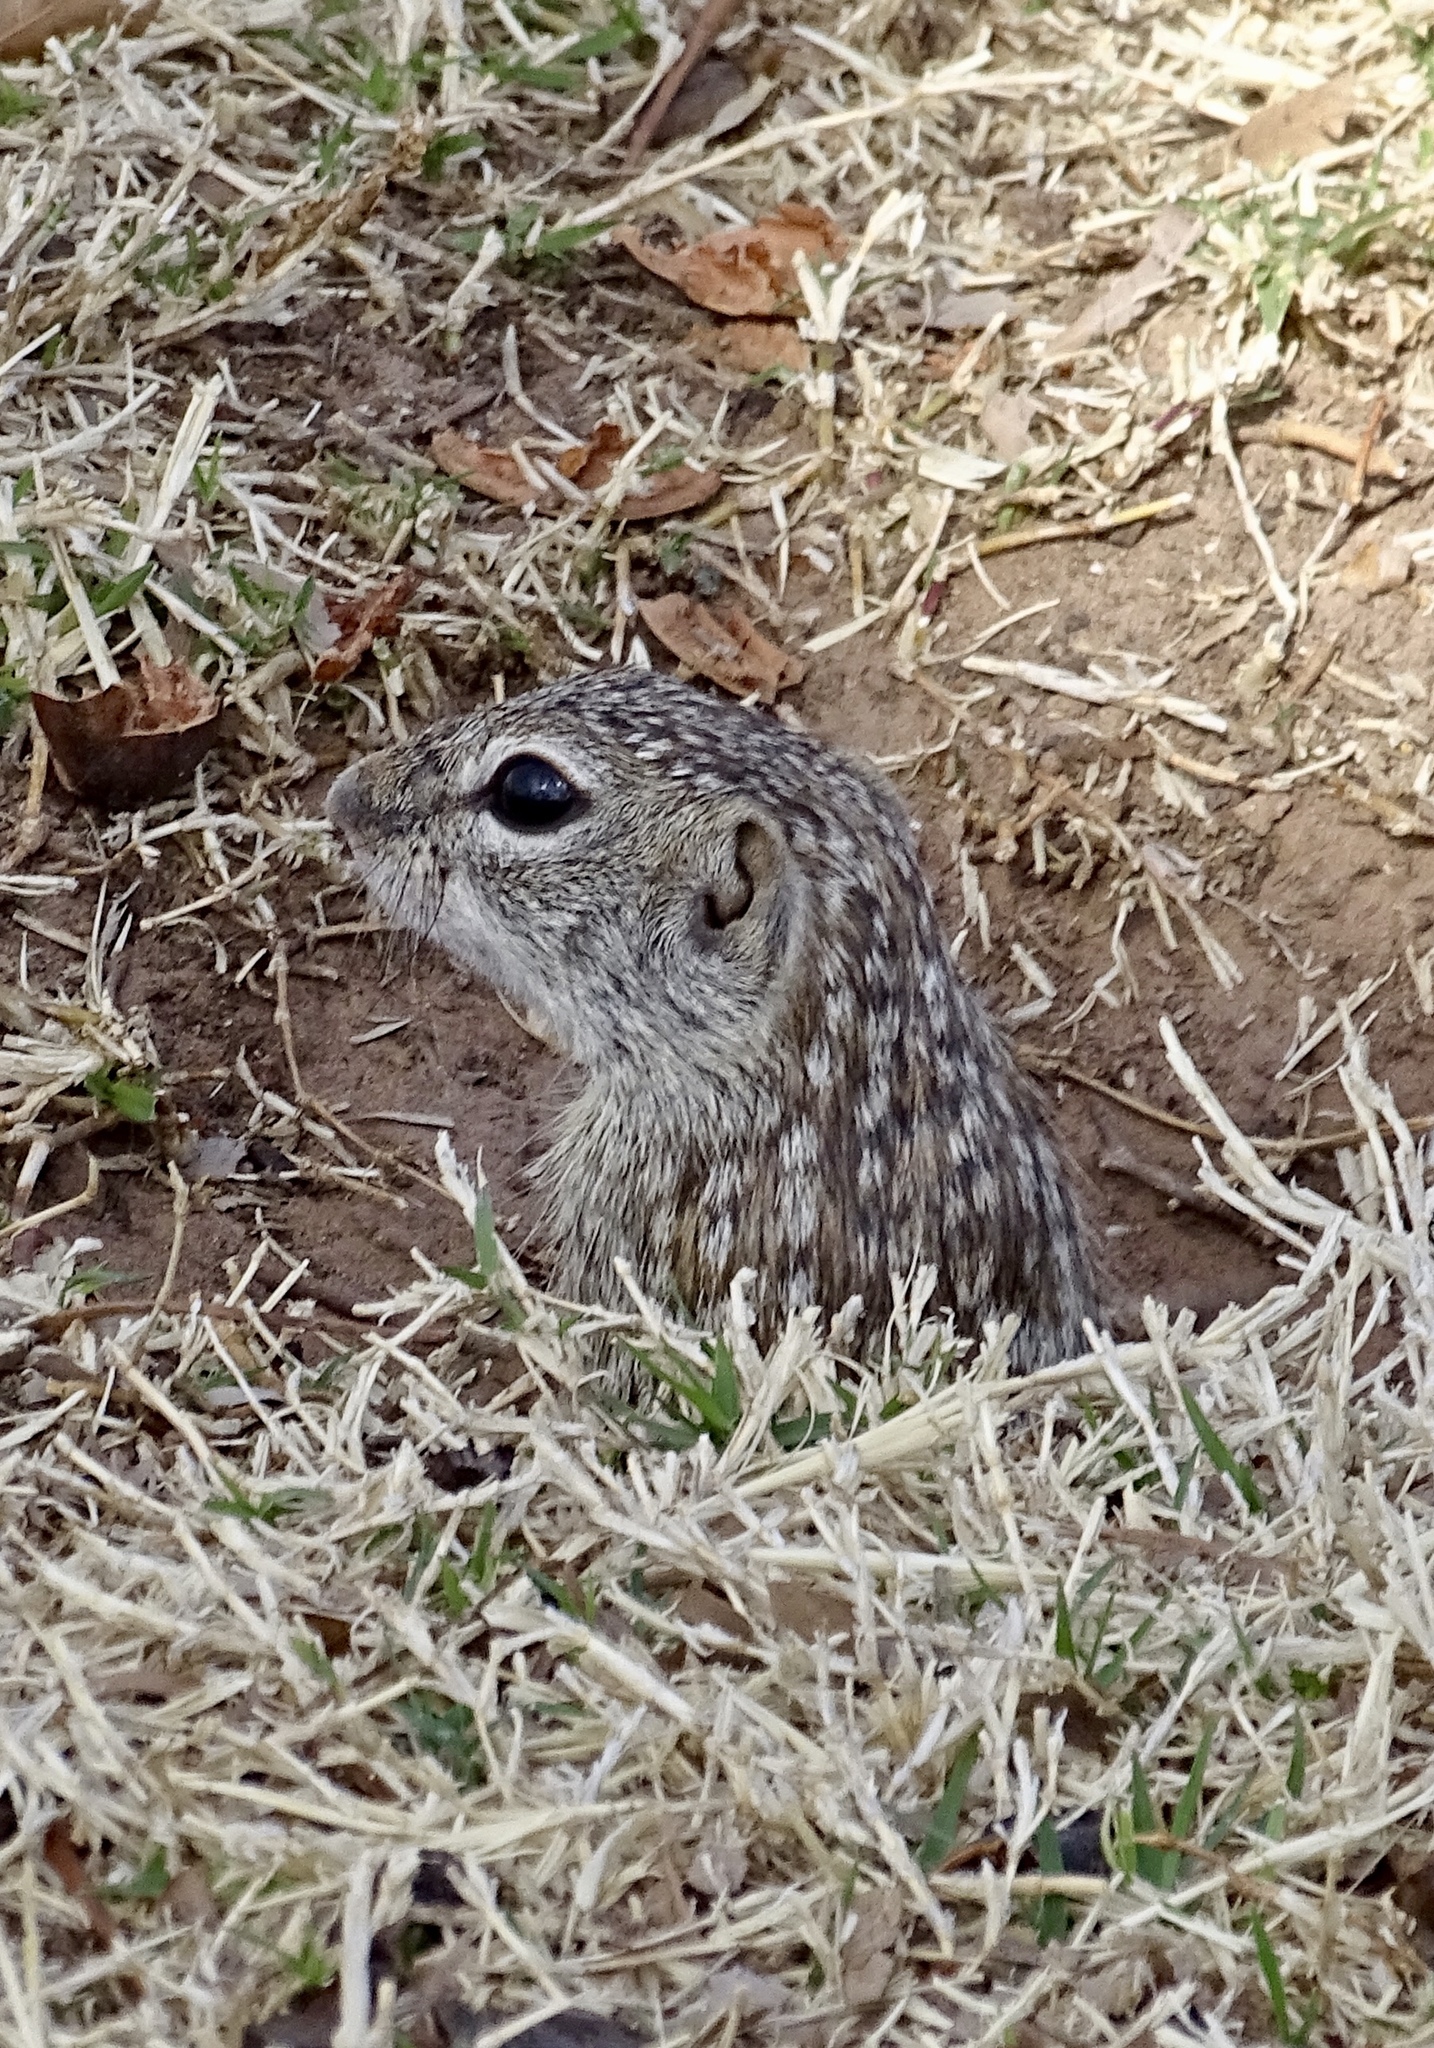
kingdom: Animalia
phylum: Chordata
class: Mammalia
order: Rodentia
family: Sciuridae
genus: Ictidomys
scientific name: Ictidomys parvidens
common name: Rio grande ground squirrel
